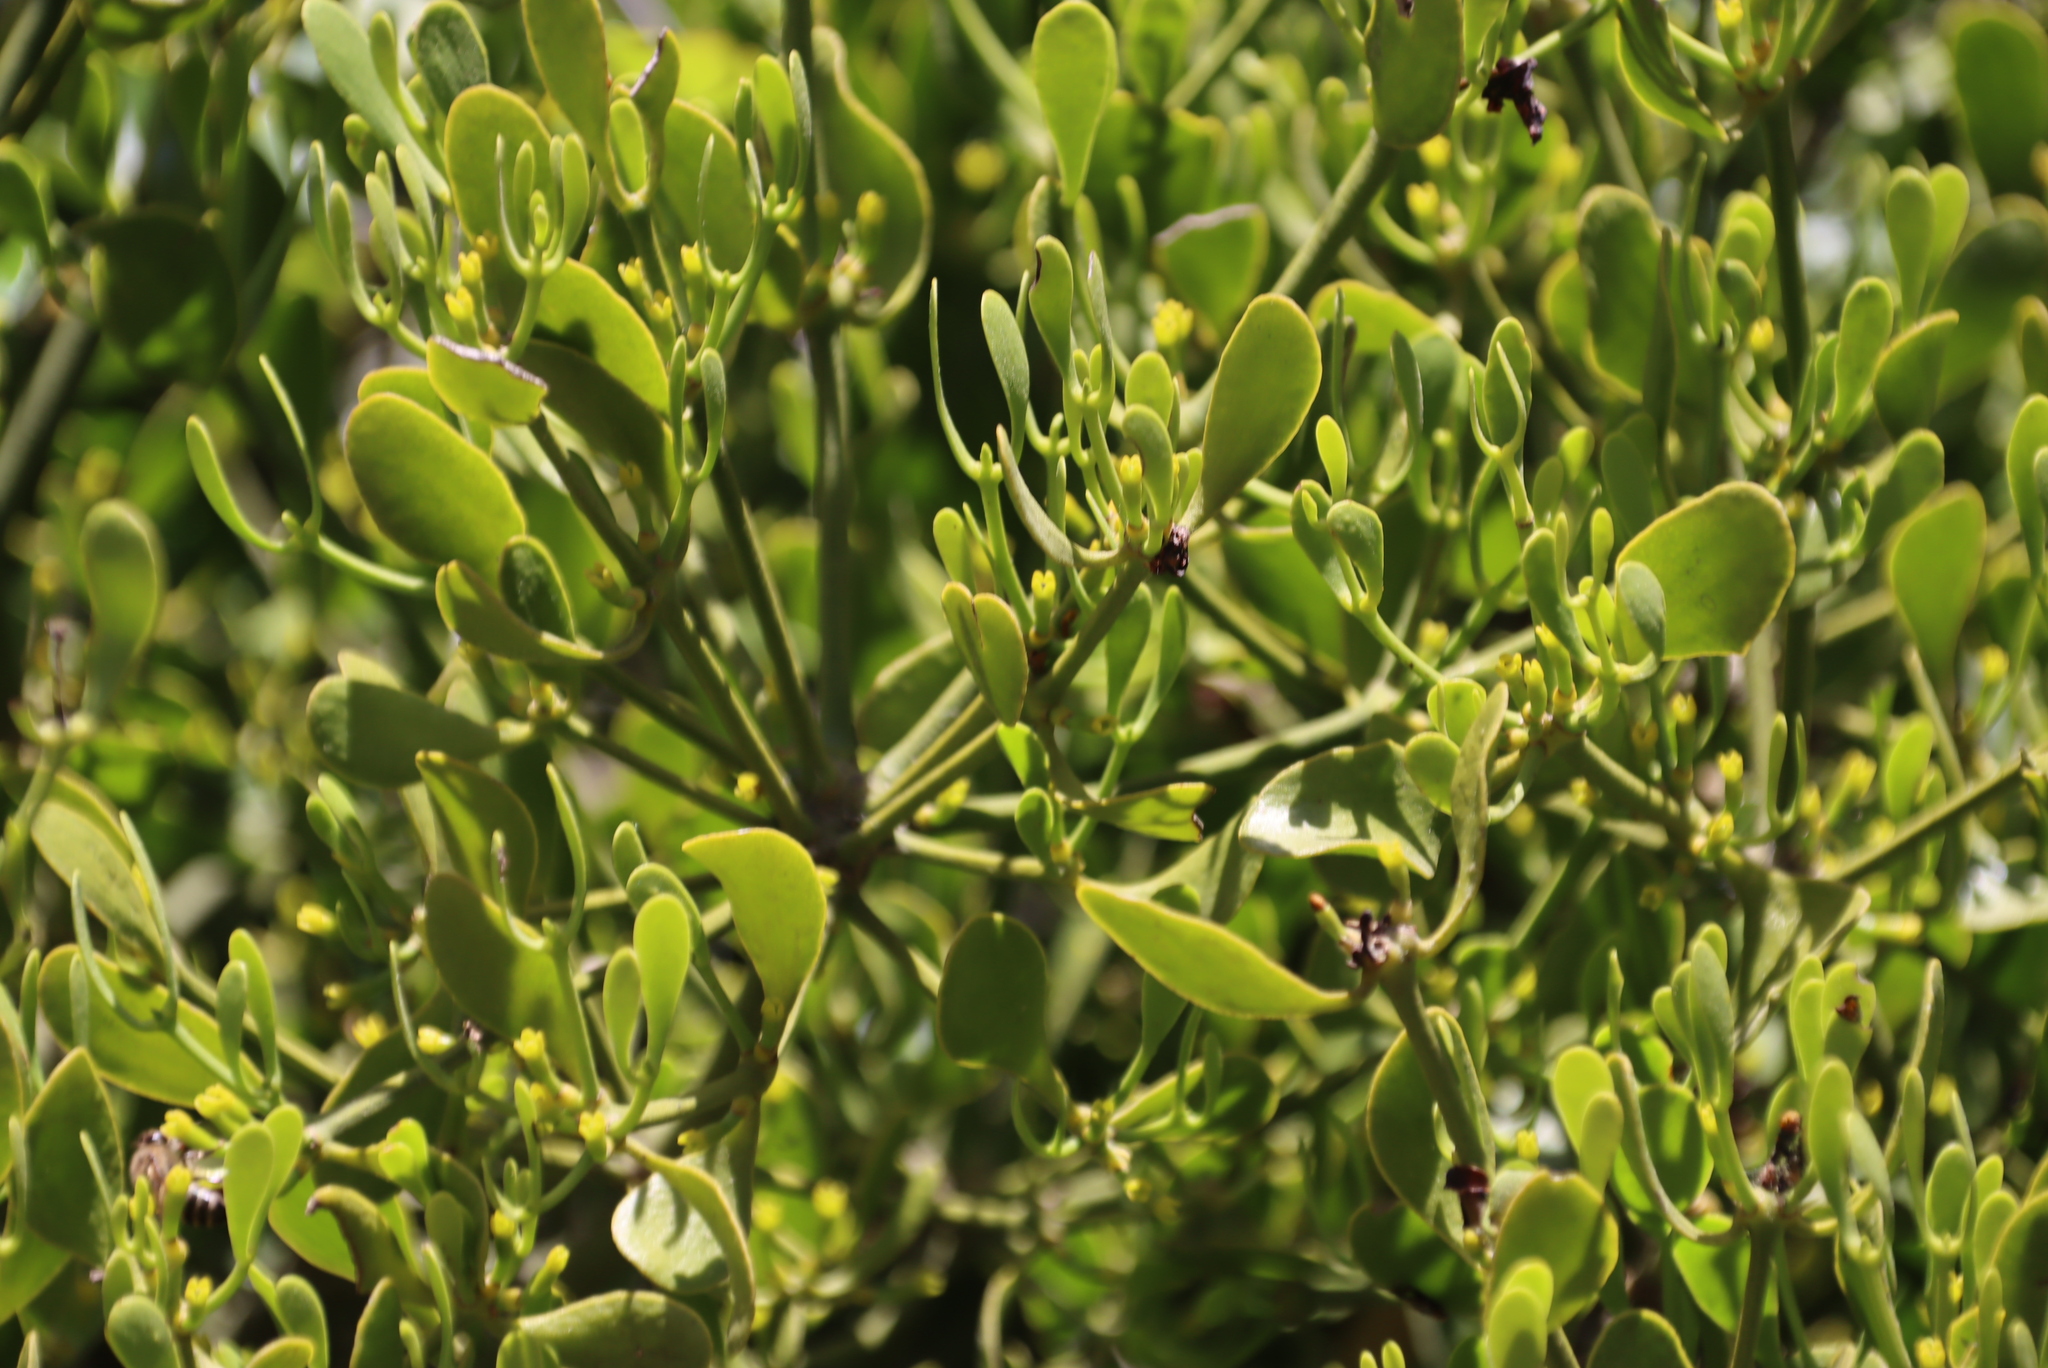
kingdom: Plantae
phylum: Tracheophyta
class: Magnoliopsida
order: Santalales
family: Viscaceae
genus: Viscum
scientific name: Viscum rotundifolium
